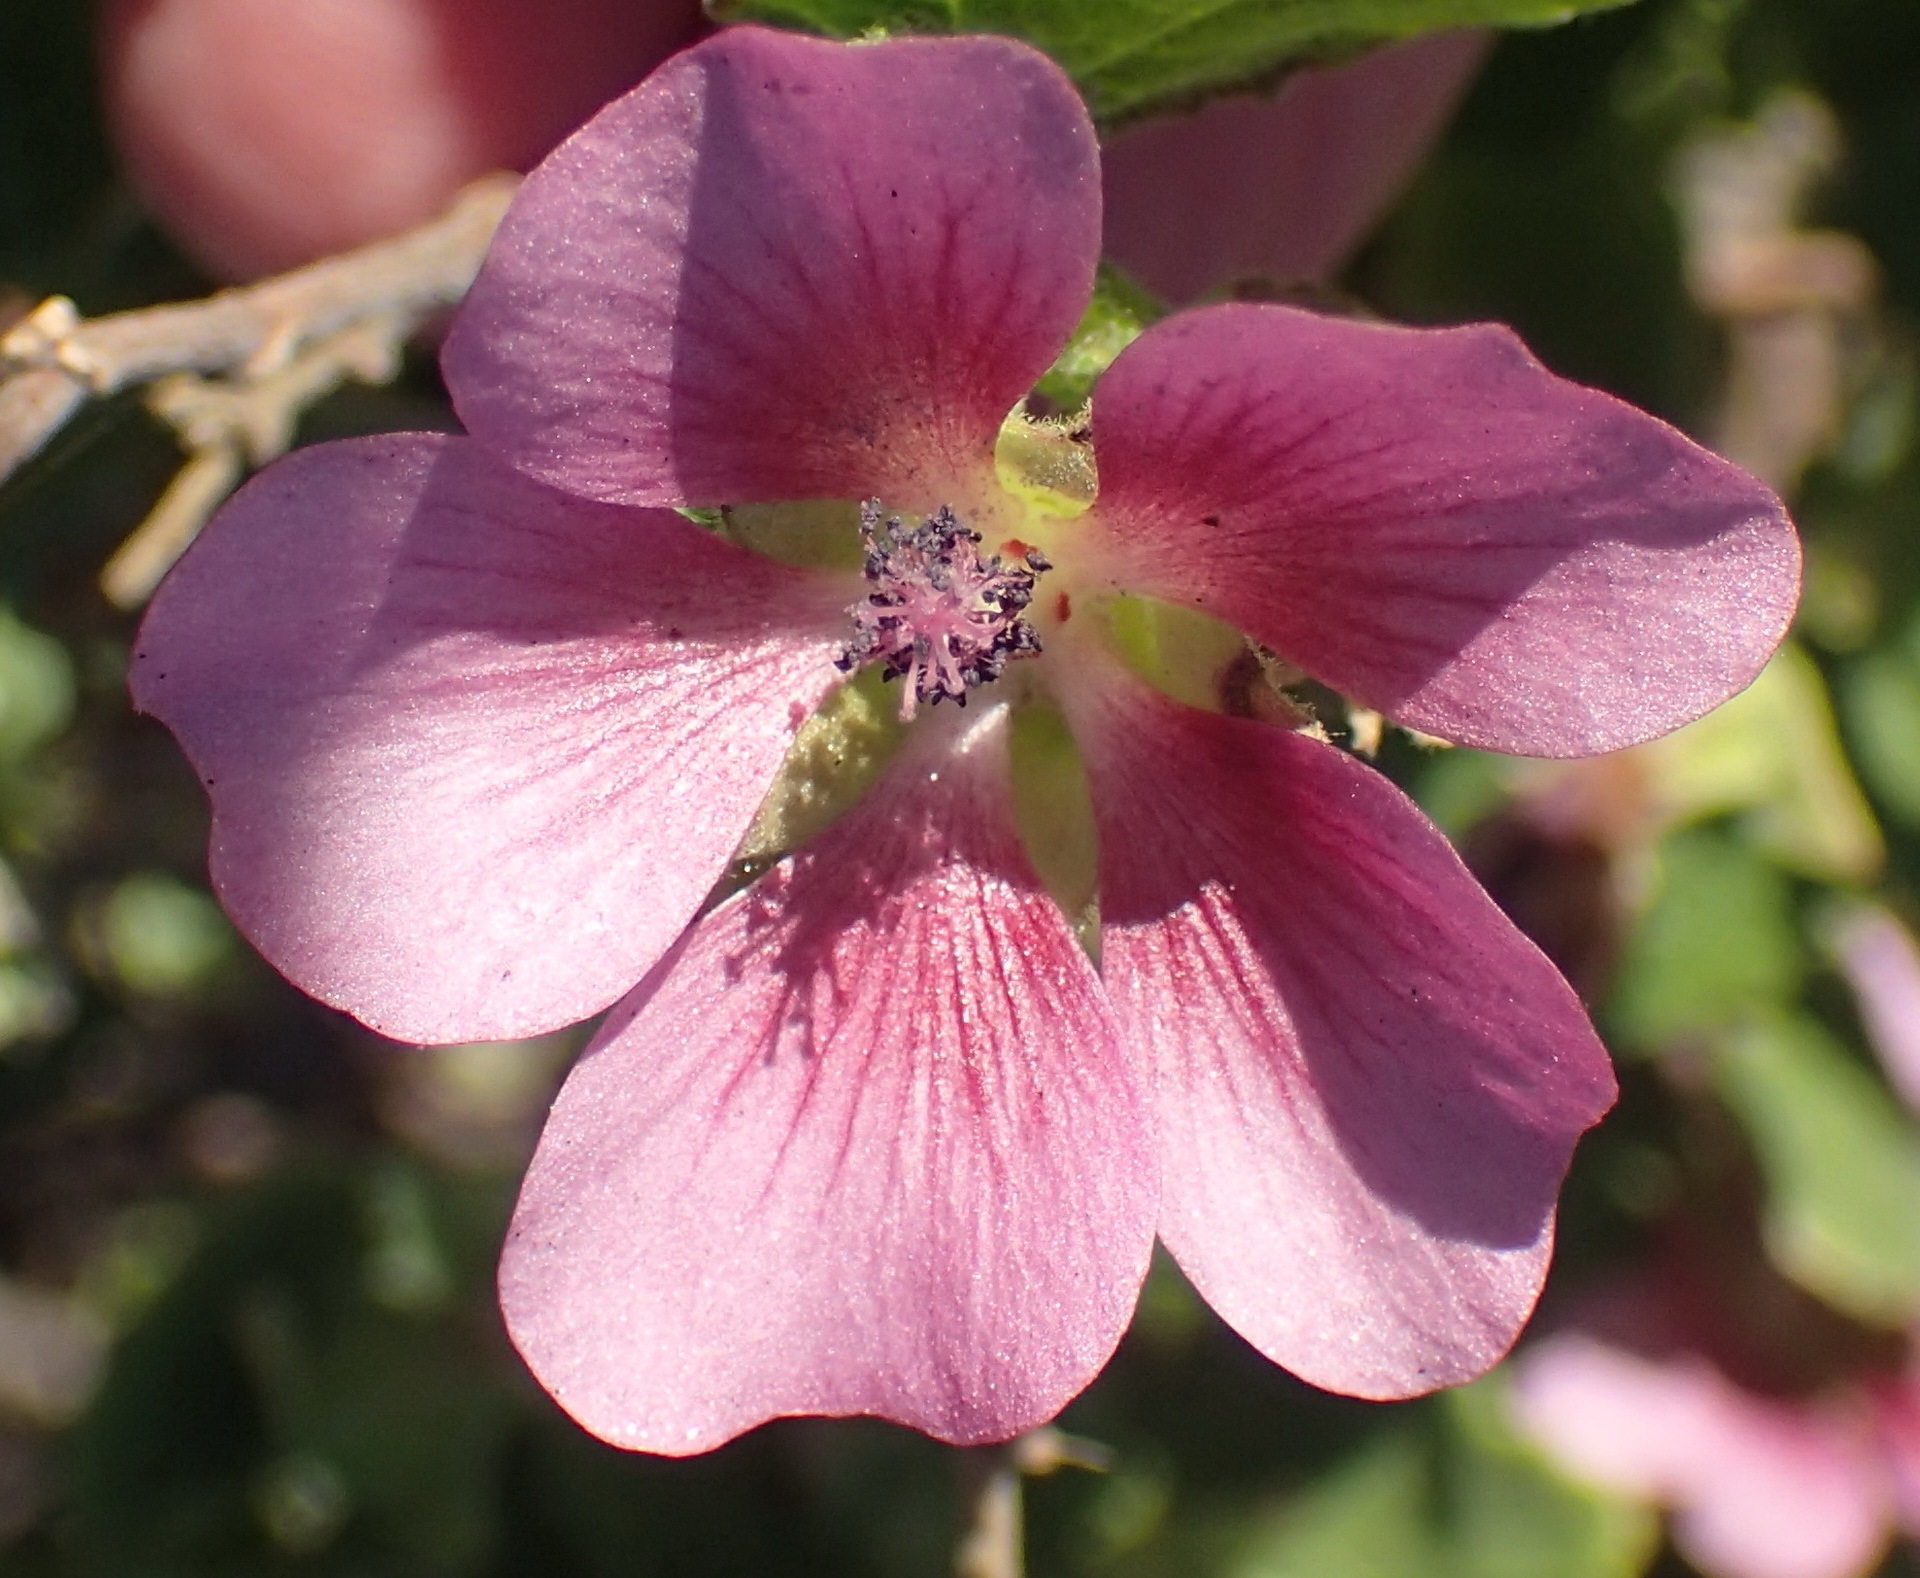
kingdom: Plantae
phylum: Tracheophyta
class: Magnoliopsida
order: Malvales
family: Malvaceae
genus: Anisodontea
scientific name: Anisodontea scabrosa
